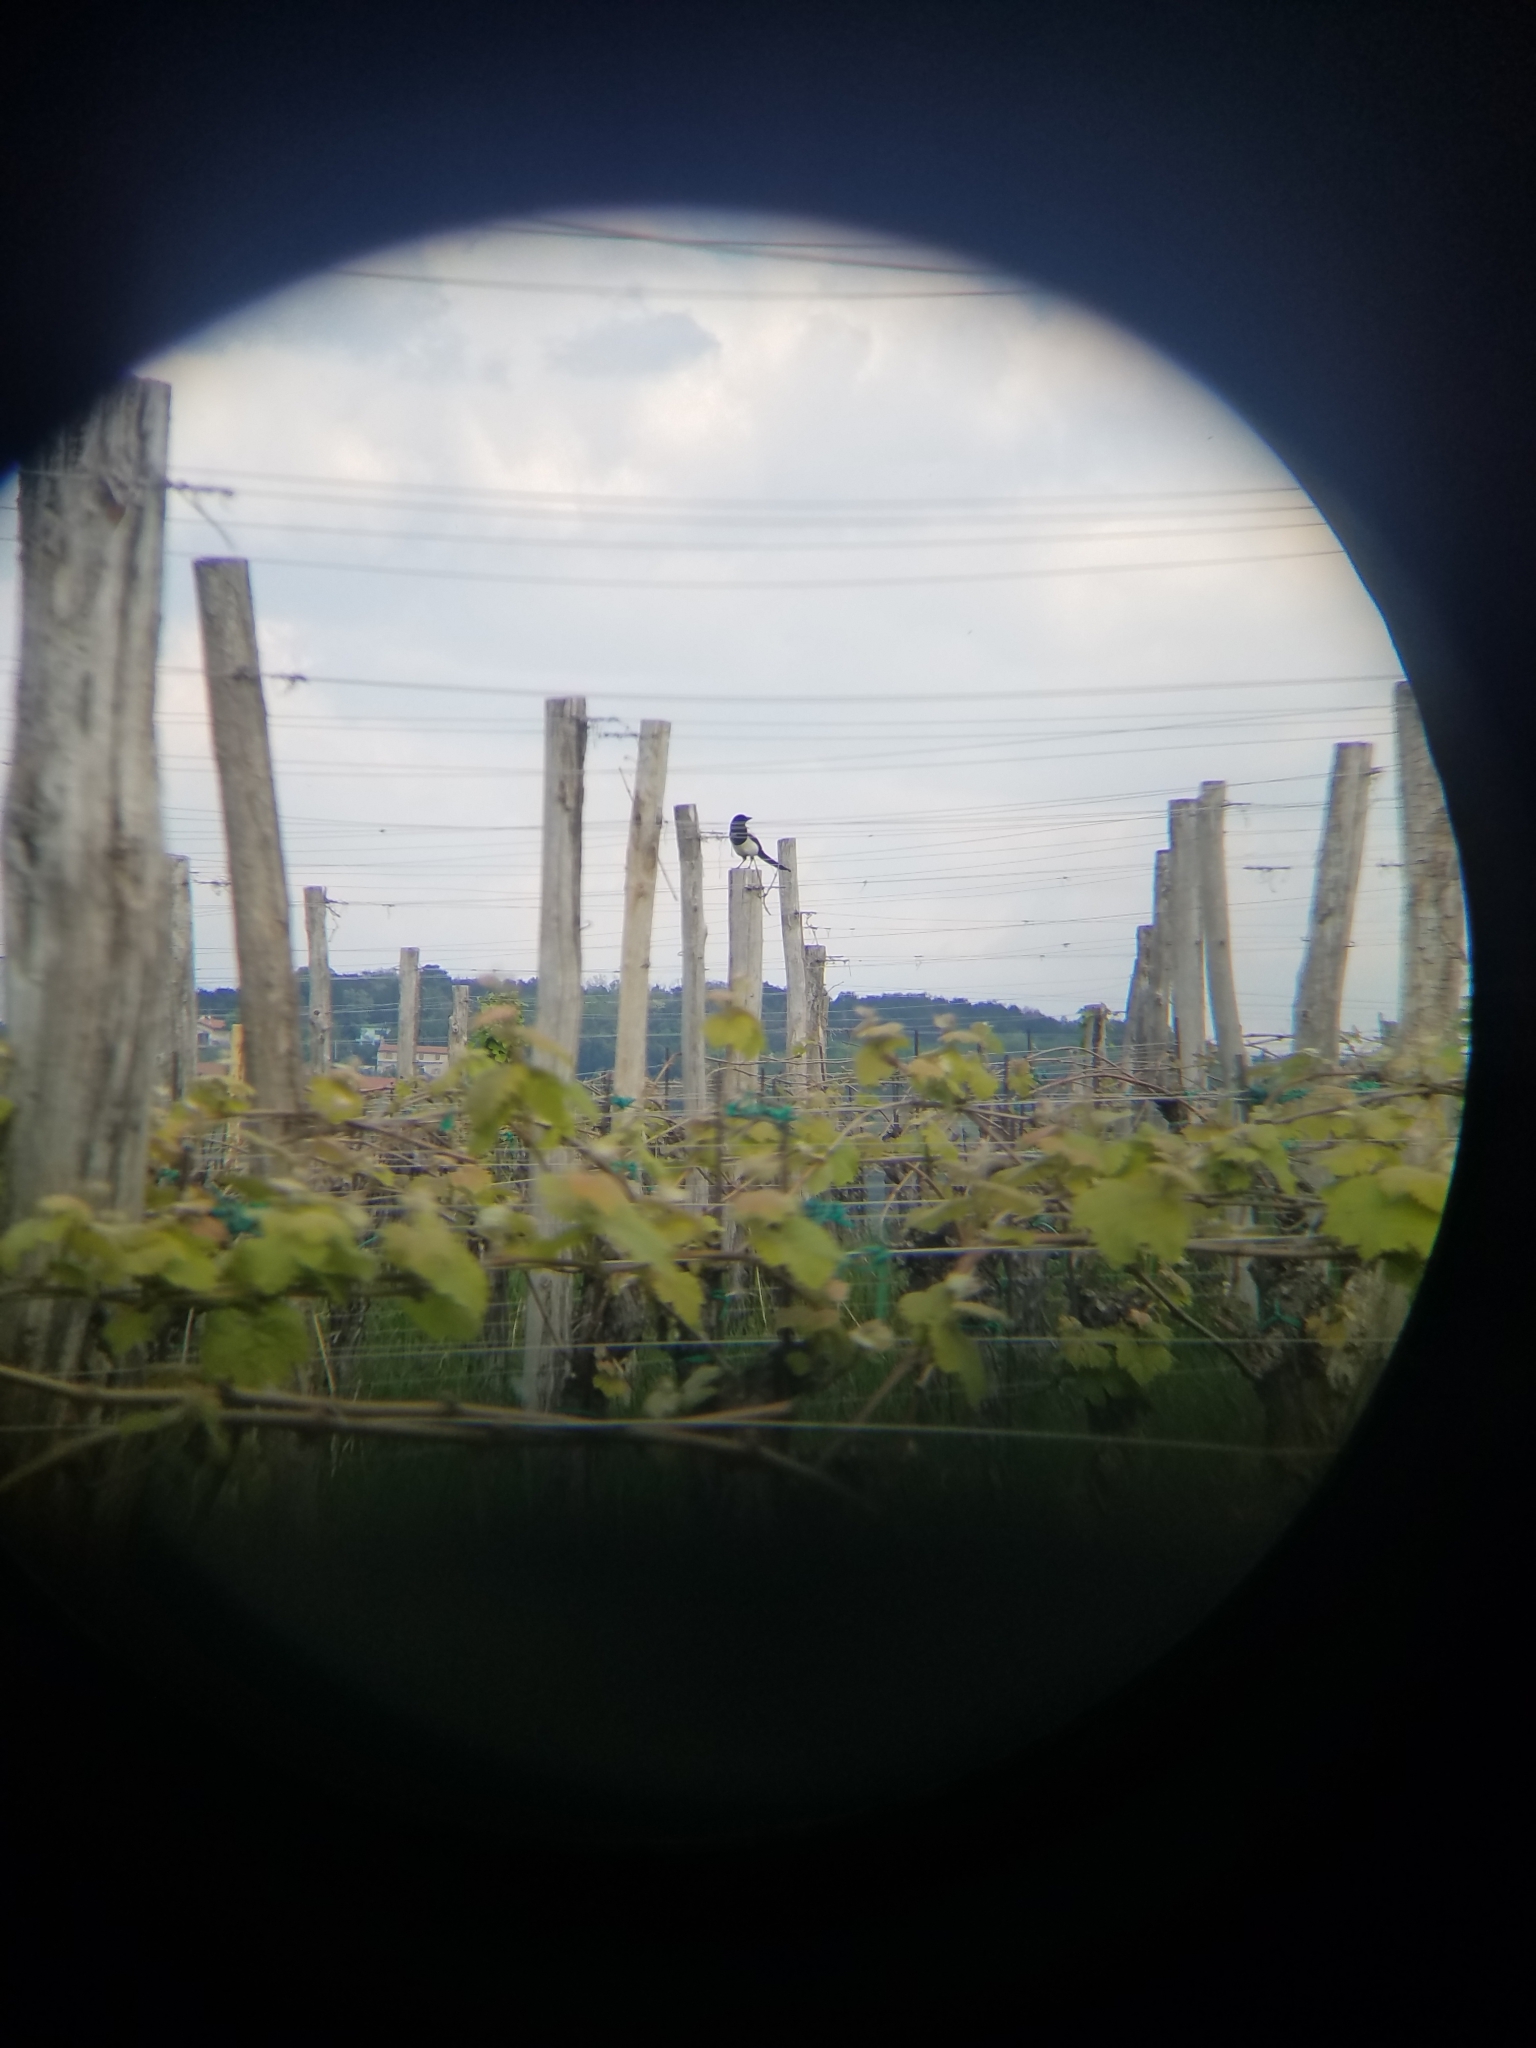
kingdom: Animalia
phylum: Chordata
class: Aves
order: Passeriformes
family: Corvidae
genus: Pica
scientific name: Pica pica
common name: Eurasian magpie
